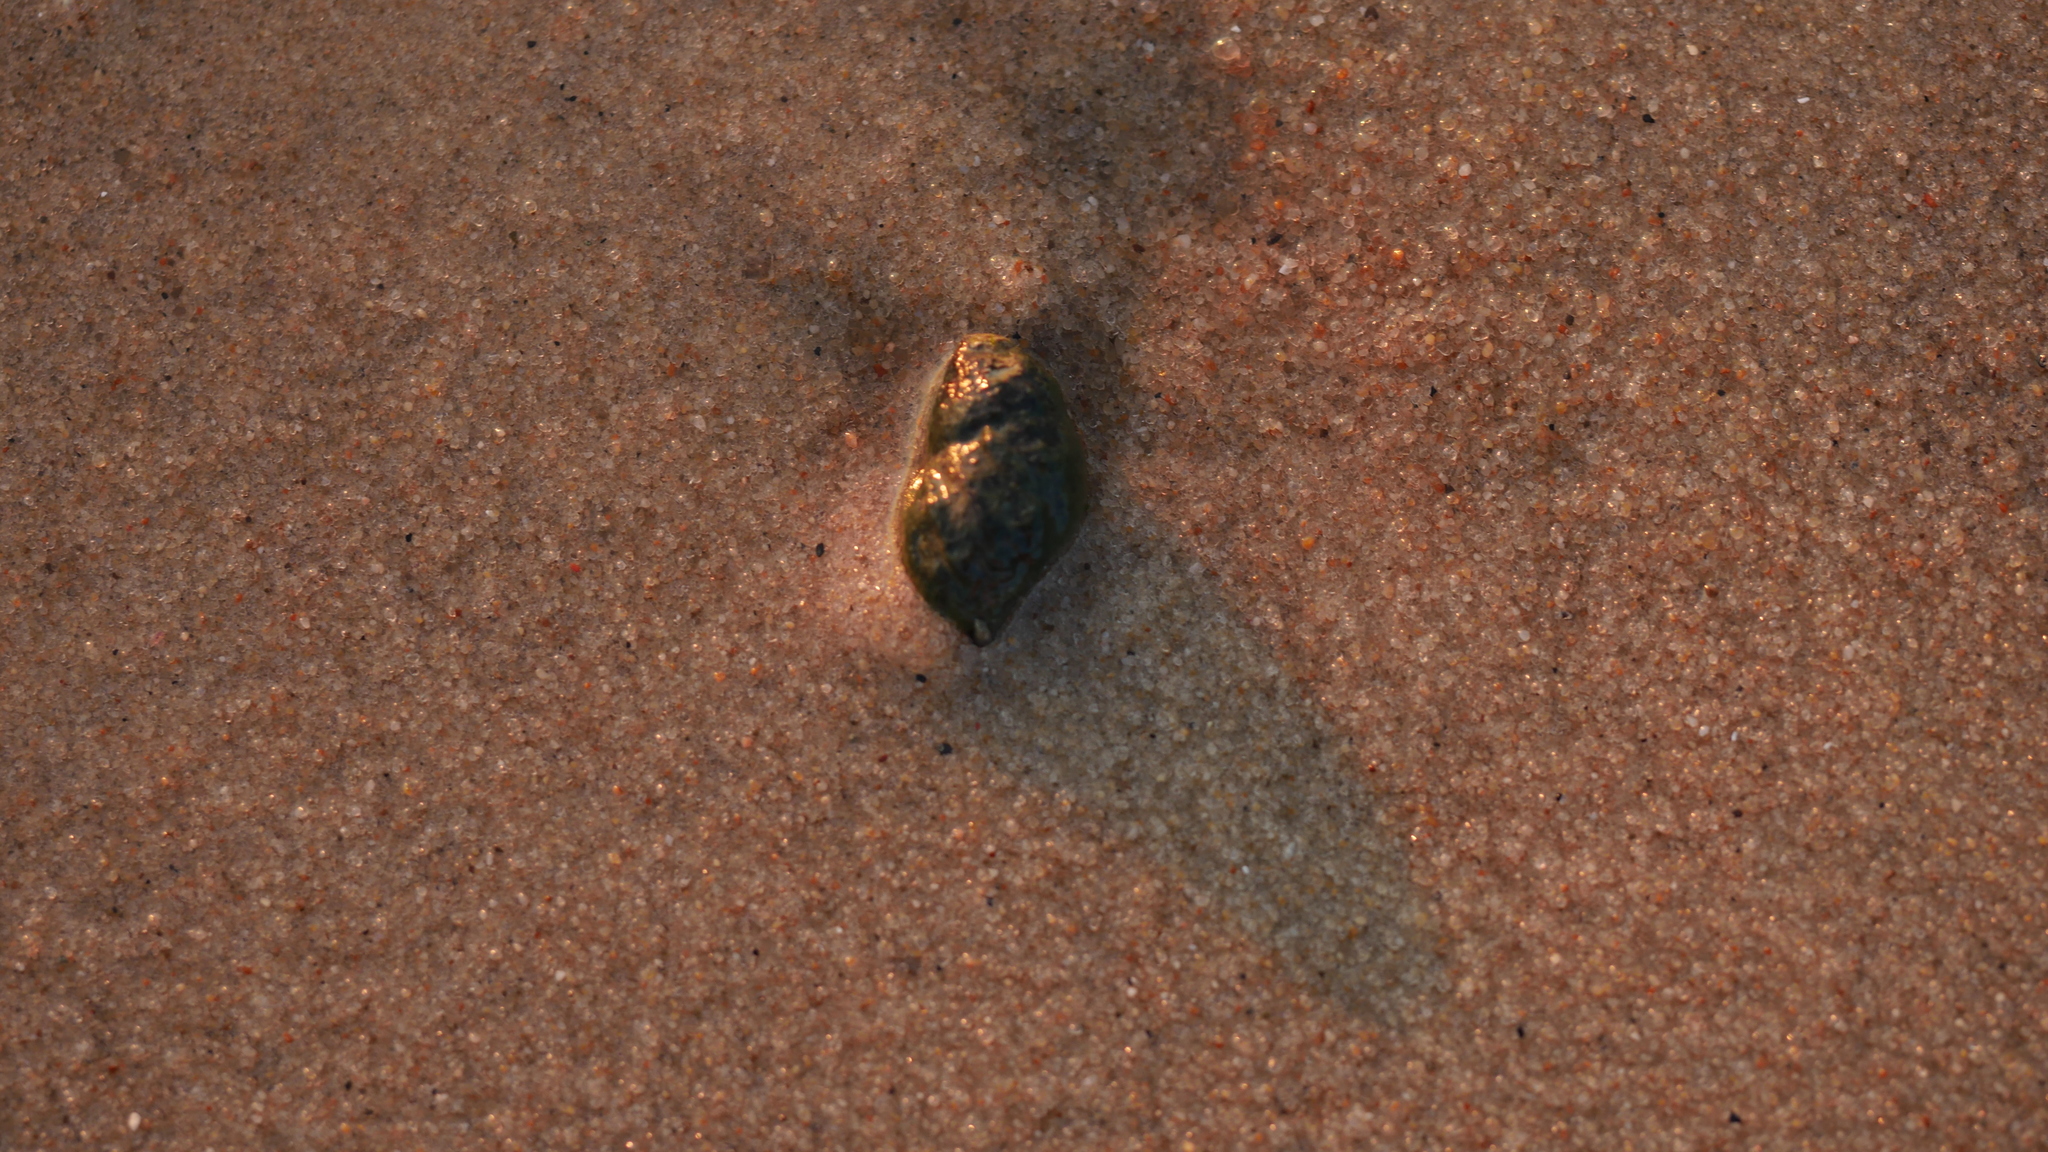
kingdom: Animalia
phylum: Mollusca
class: Gastropoda
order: Neogastropoda
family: Nassariidae
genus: Ilyanassa
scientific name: Ilyanassa obsoleta
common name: Eastern mudsnail
